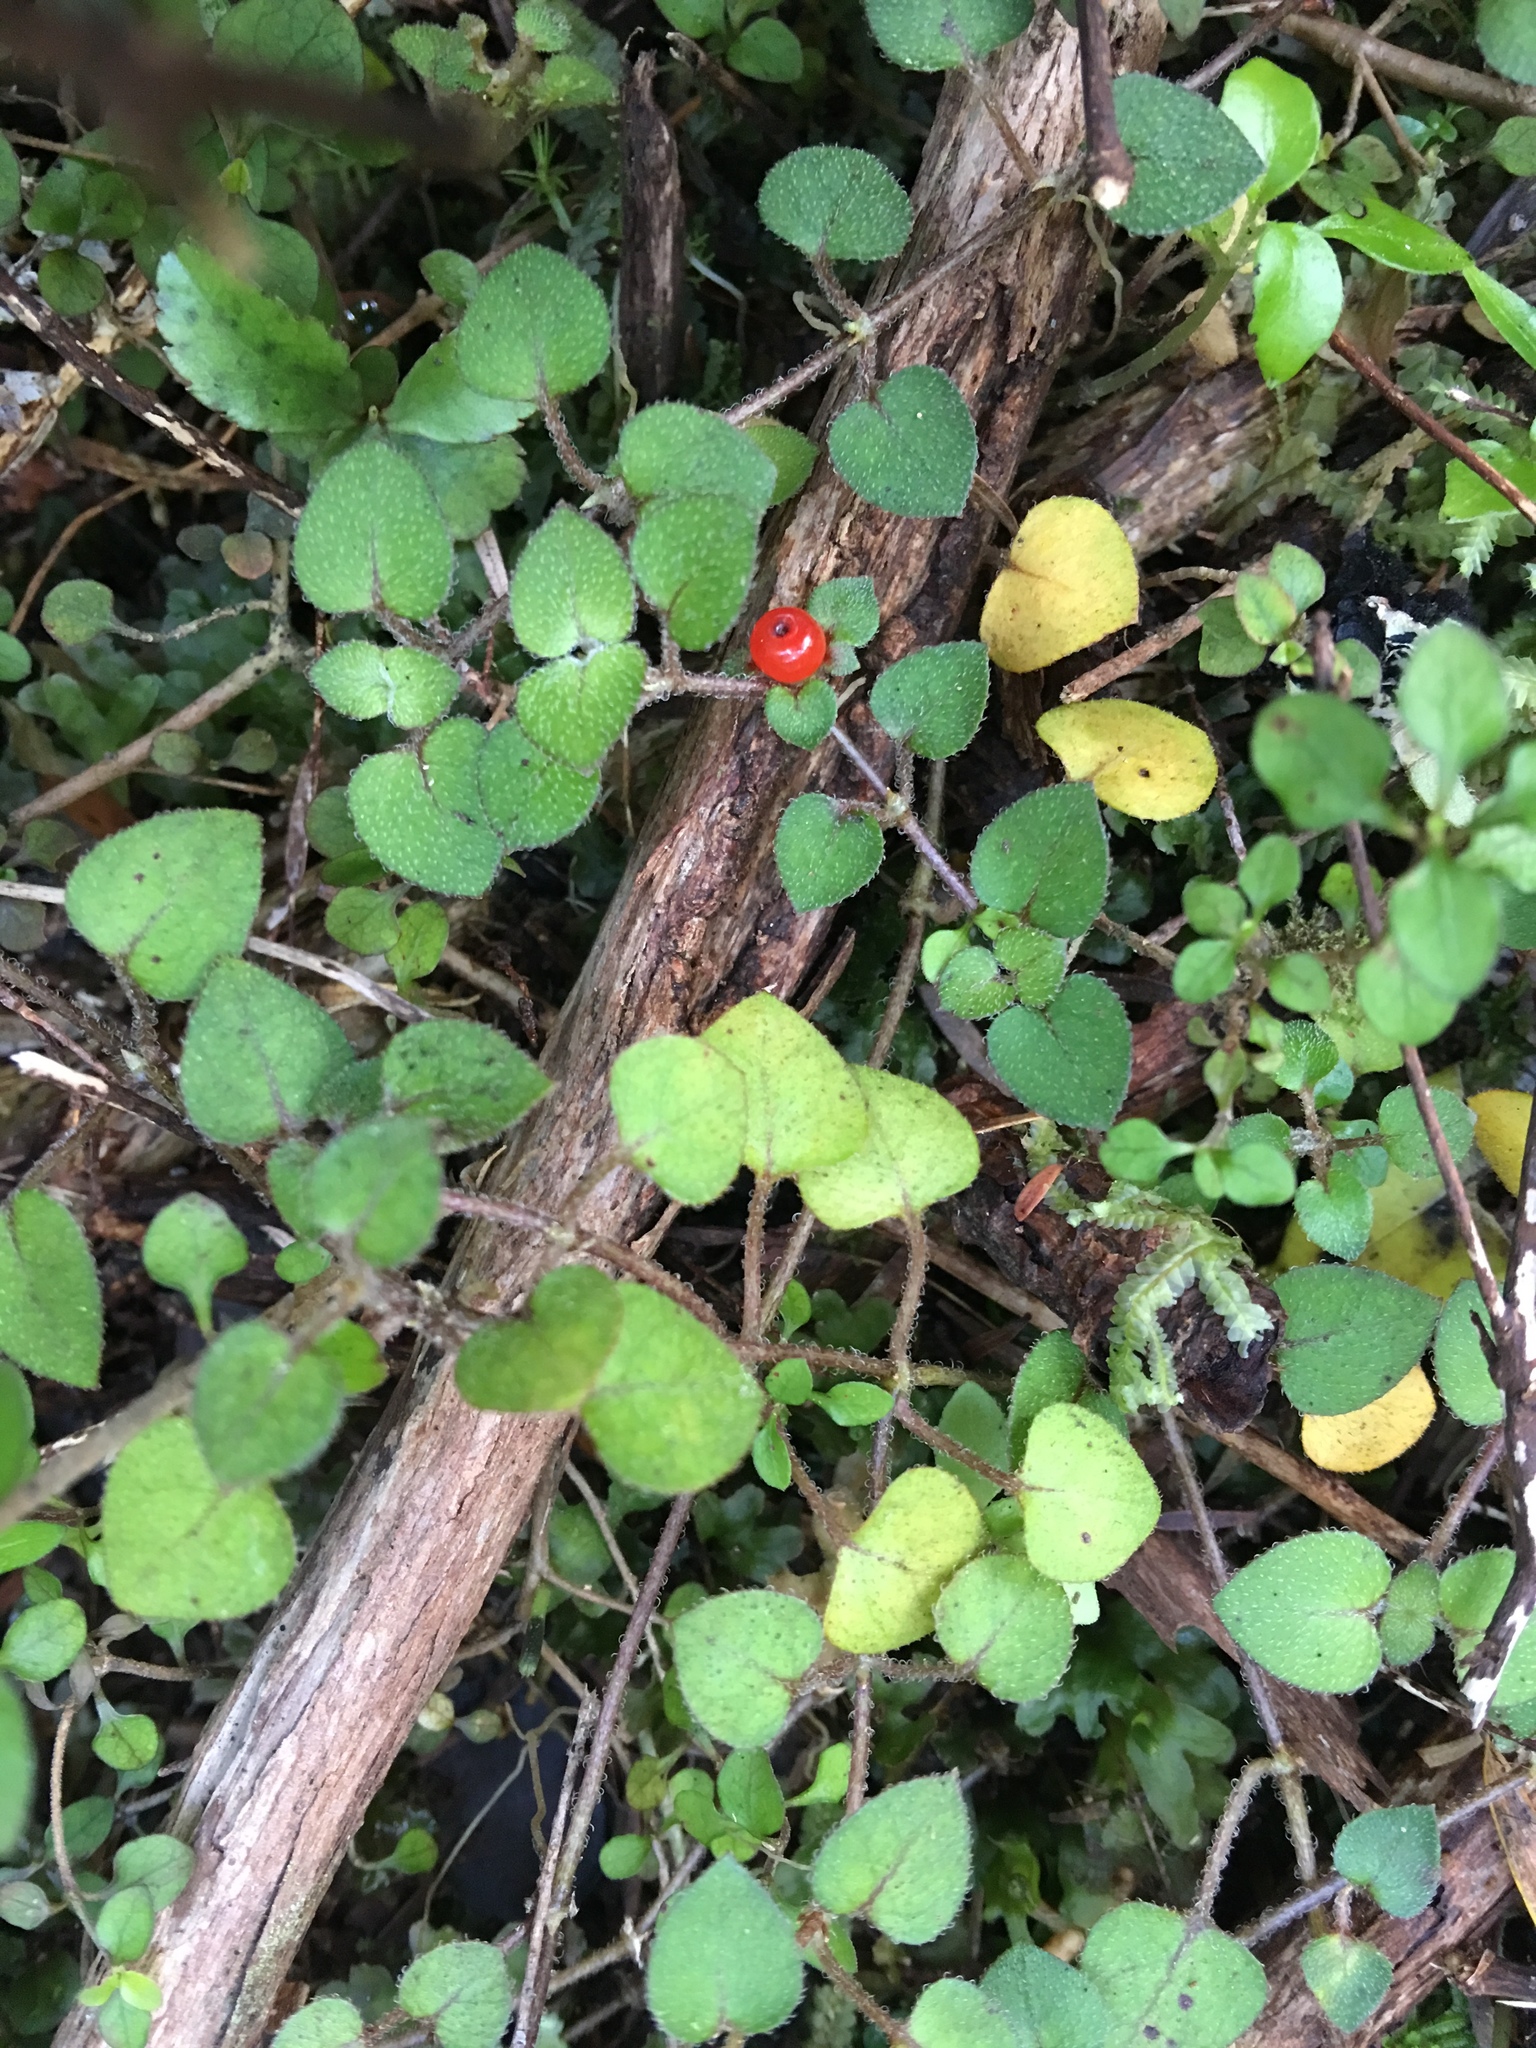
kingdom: Plantae
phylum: Tracheophyta
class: Magnoliopsida
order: Gentianales
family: Rubiaceae
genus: Nertera
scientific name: Nertera dichondrifolia
